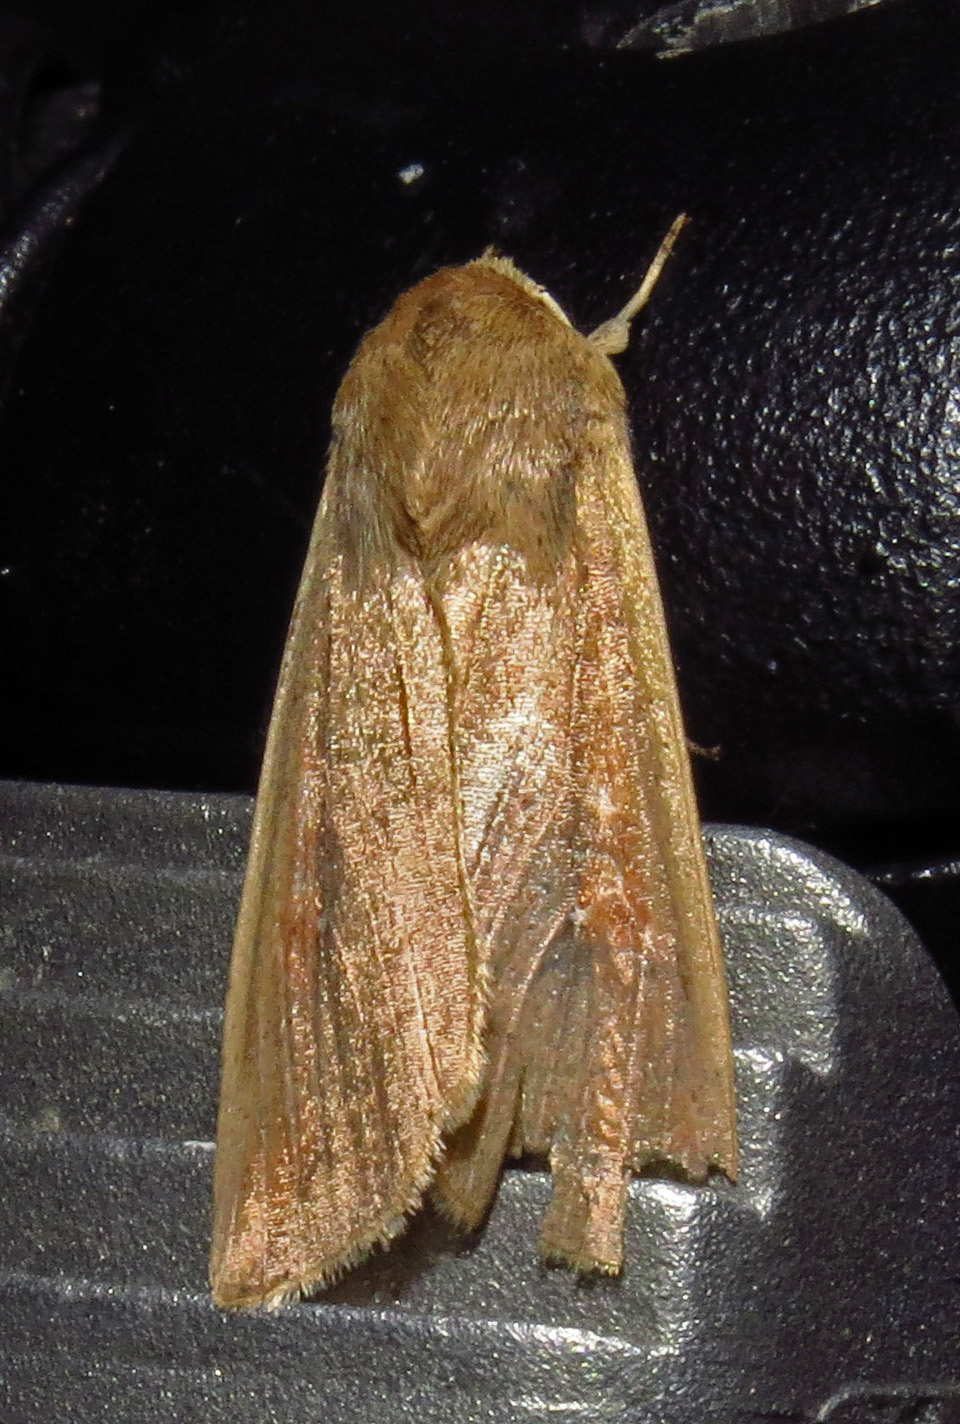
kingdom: Animalia
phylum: Arthropoda
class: Insecta
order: Lepidoptera
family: Noctuidae
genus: Mythimna
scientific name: Mythimna unipuncta
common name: White-speck
